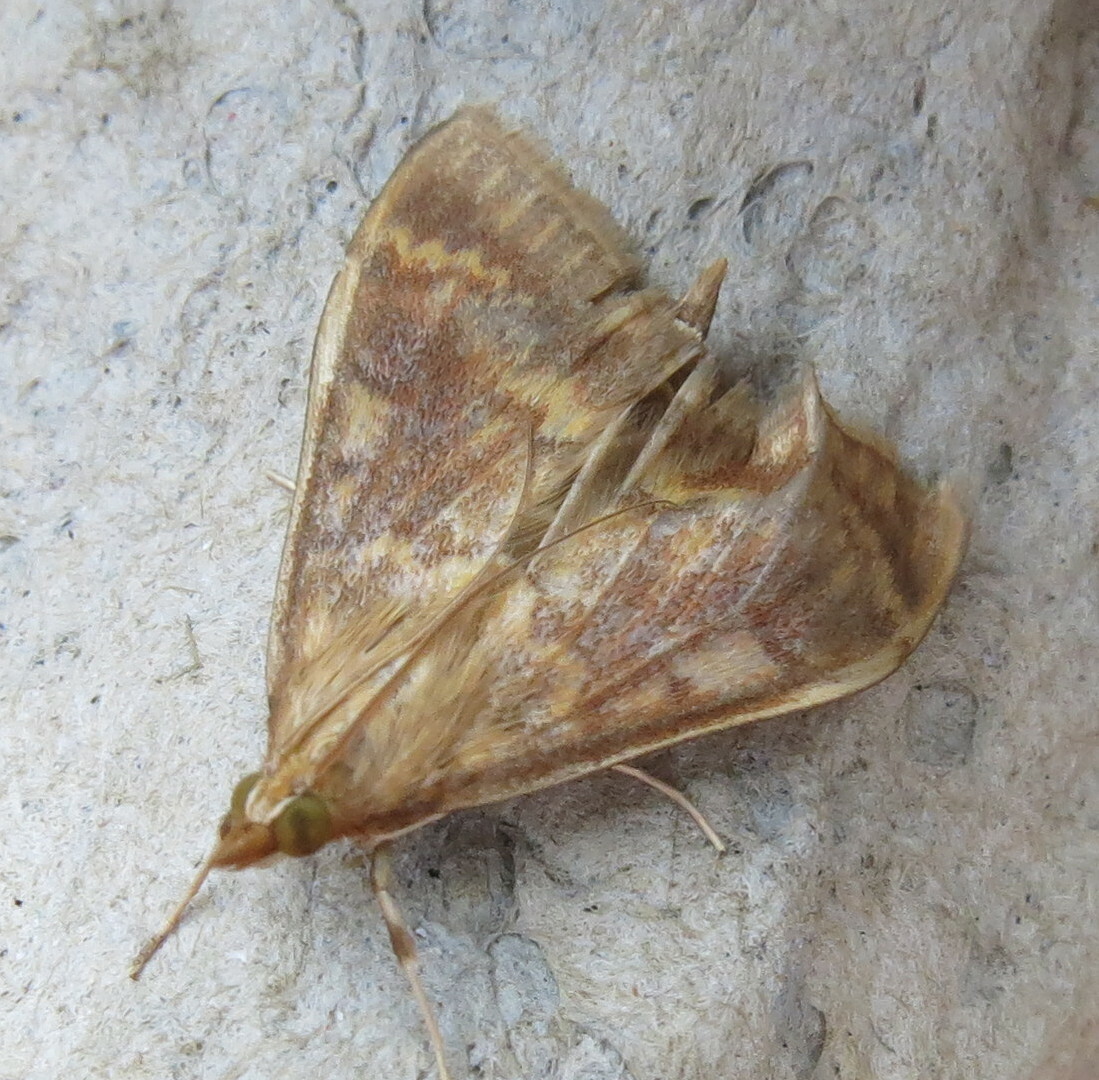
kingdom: Animalia
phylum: Arthropoda
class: Insecta
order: Lepidoptera
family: Crambidae
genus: Ostrinia
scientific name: Ostrinia nubilalis
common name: European corn borer
